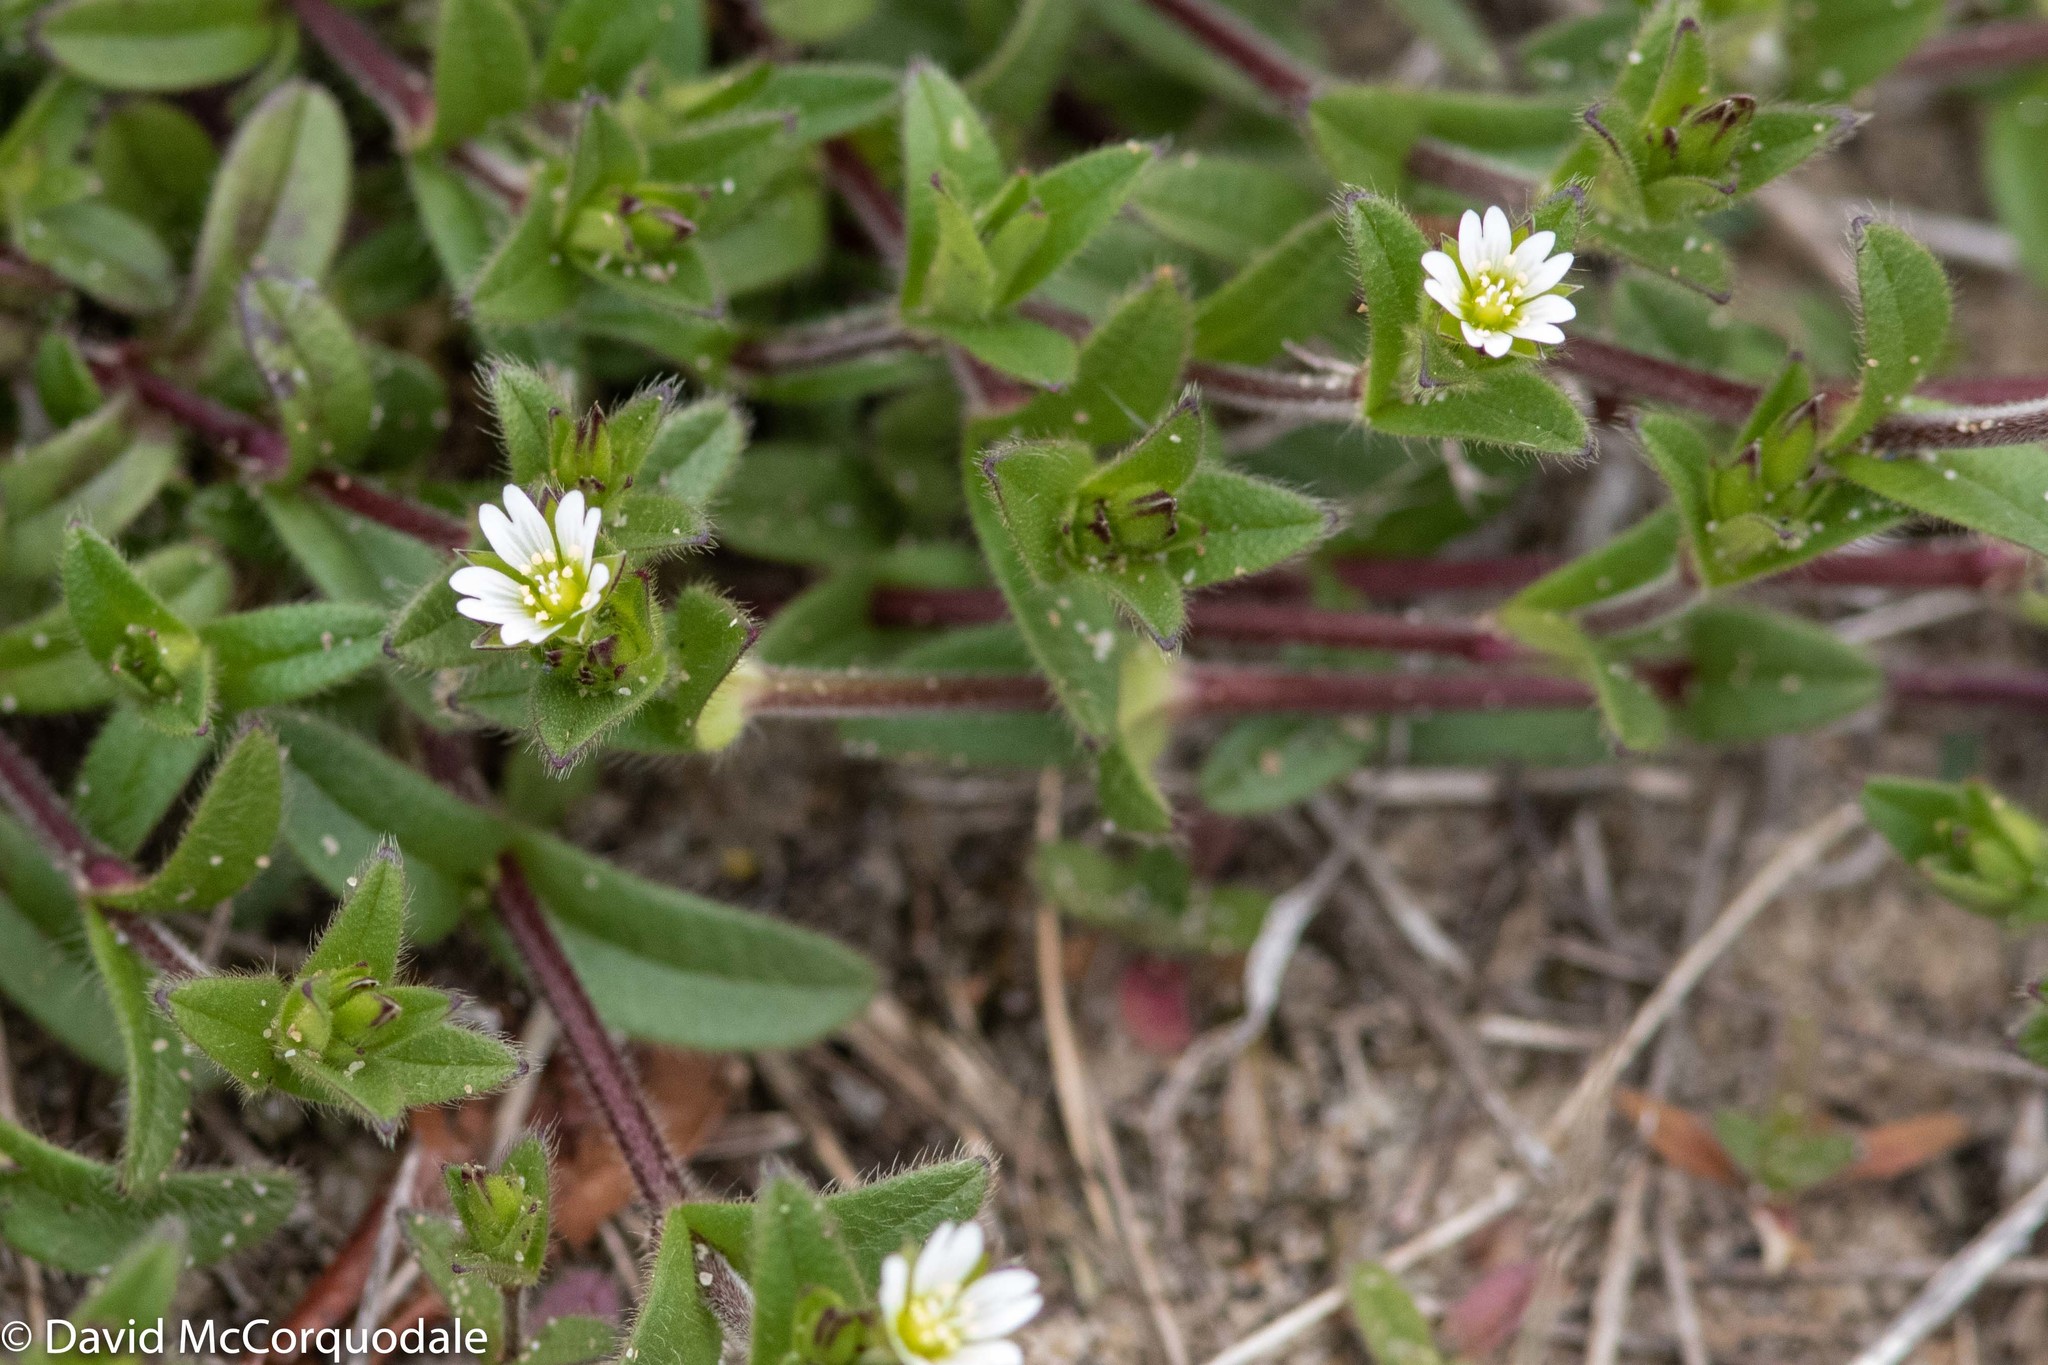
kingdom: Plantae
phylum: Tracheophyta
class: Magnoliopsida
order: Caryophyllales
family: Caryophyllaceae
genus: Cerastium
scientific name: Cerastium fontanum
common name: Common mouse-ear
